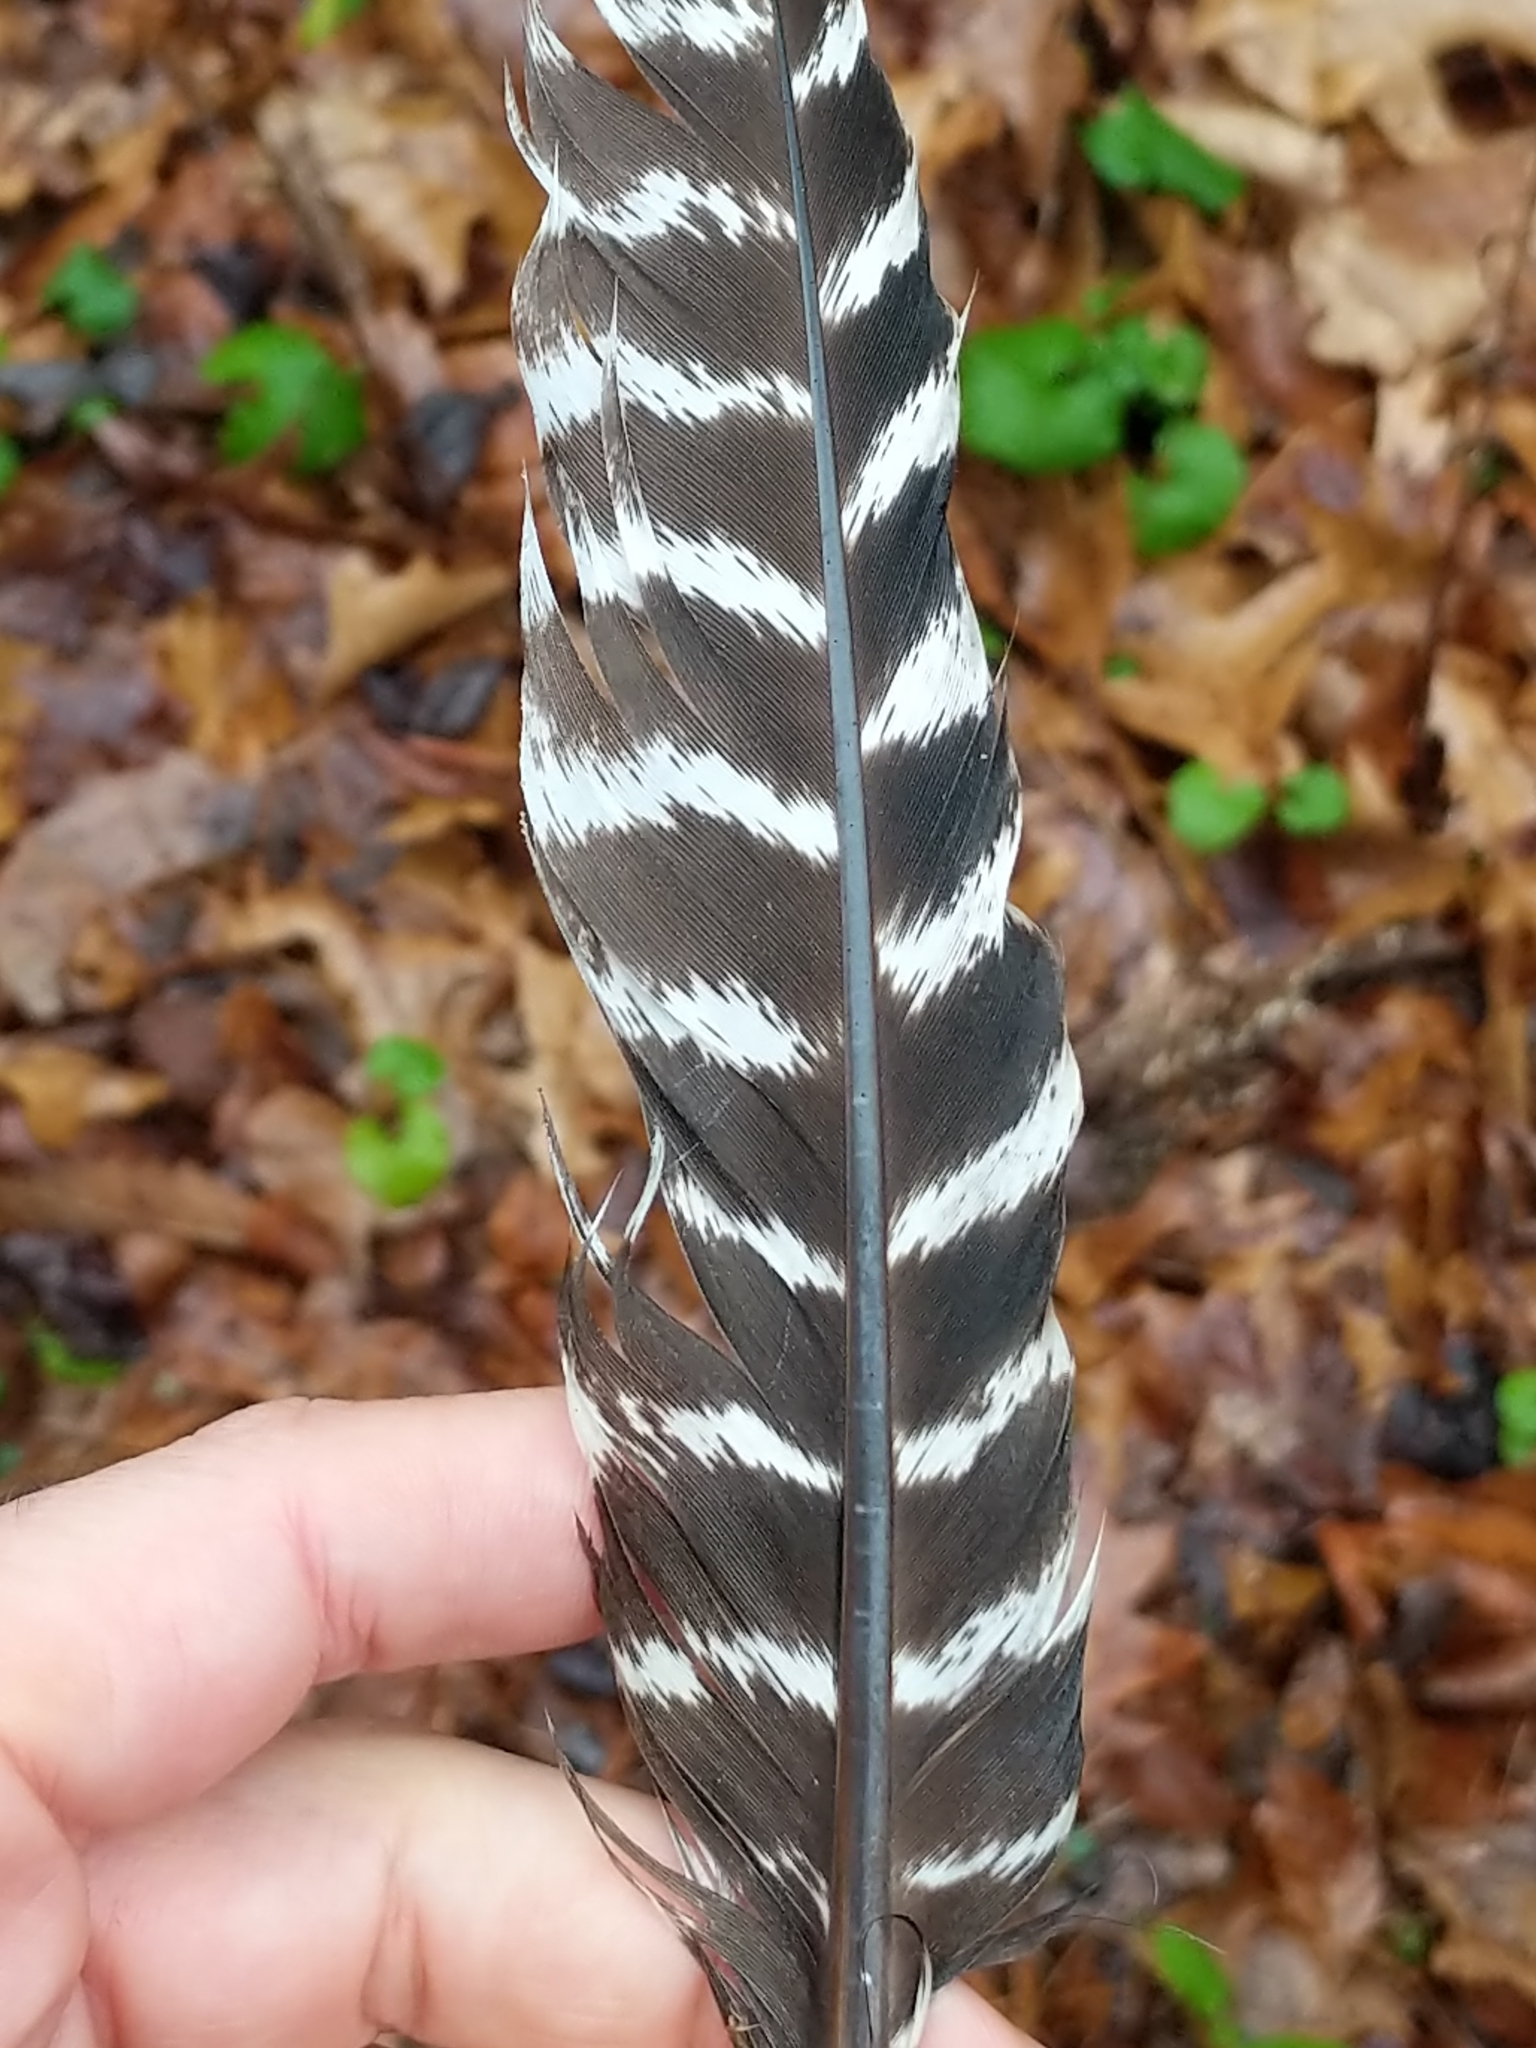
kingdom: Animalia
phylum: Chordata
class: Aves
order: Galliformes
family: Phasianidae
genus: Meleagris
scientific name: Meleagris gallopavo
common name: Wild turkey
